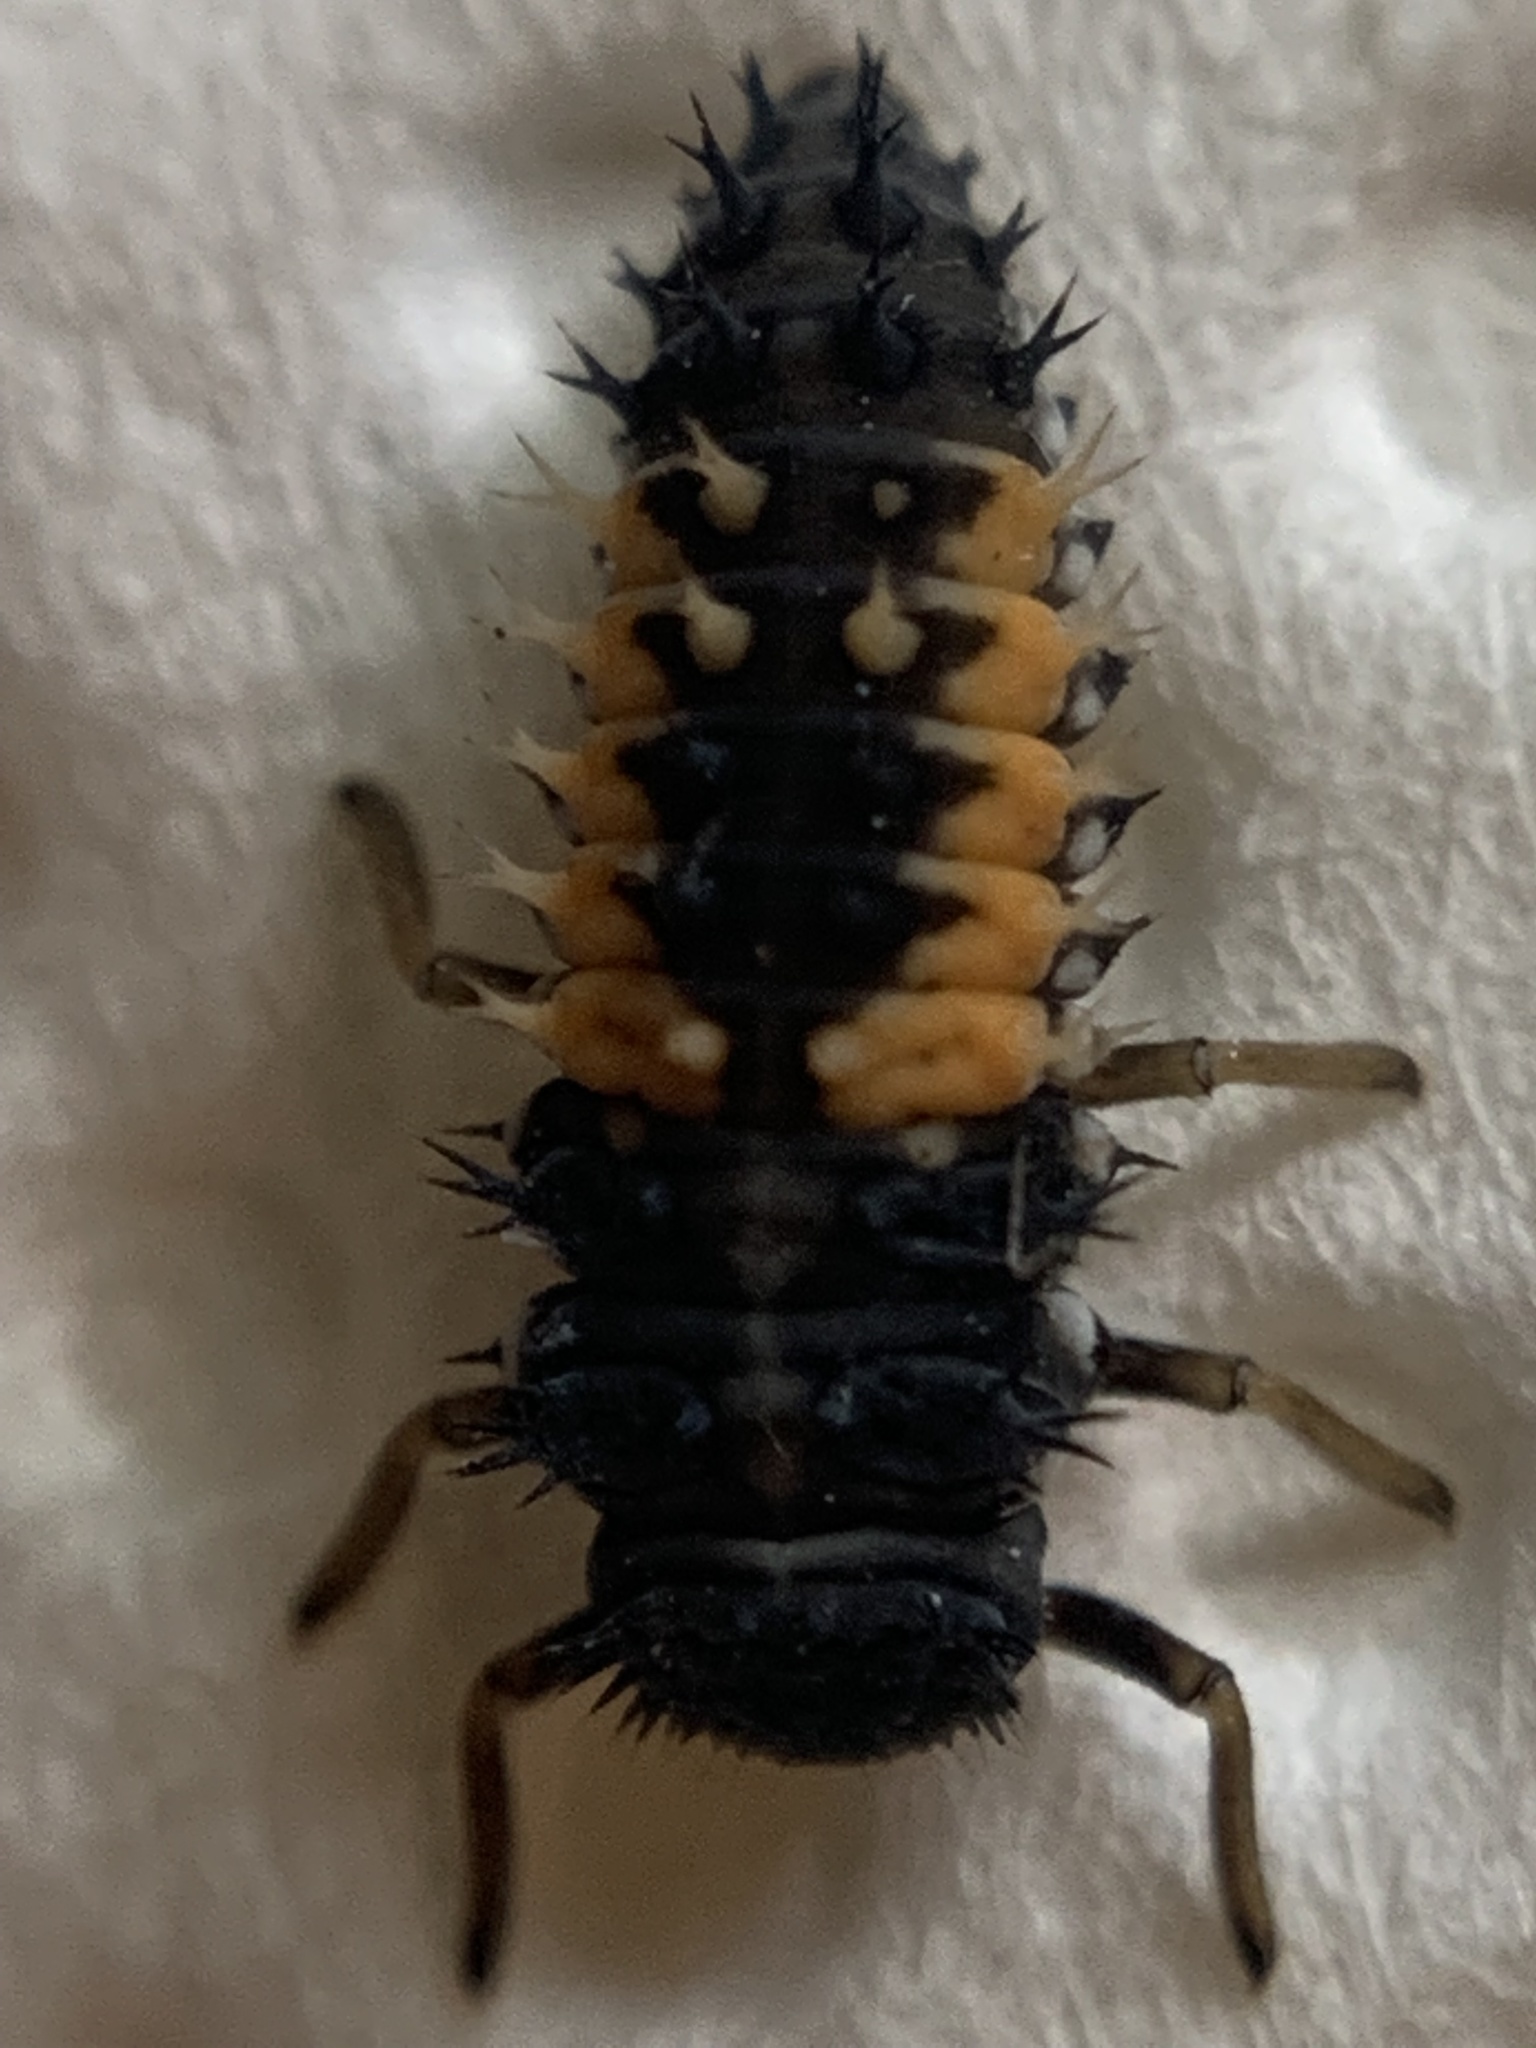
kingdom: Animalia
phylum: Arthropoda
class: Insecta
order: Coleoptera
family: Coccinellidae
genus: Harmonia
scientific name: Harmonia axyridis
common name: Harlequin ladybird
